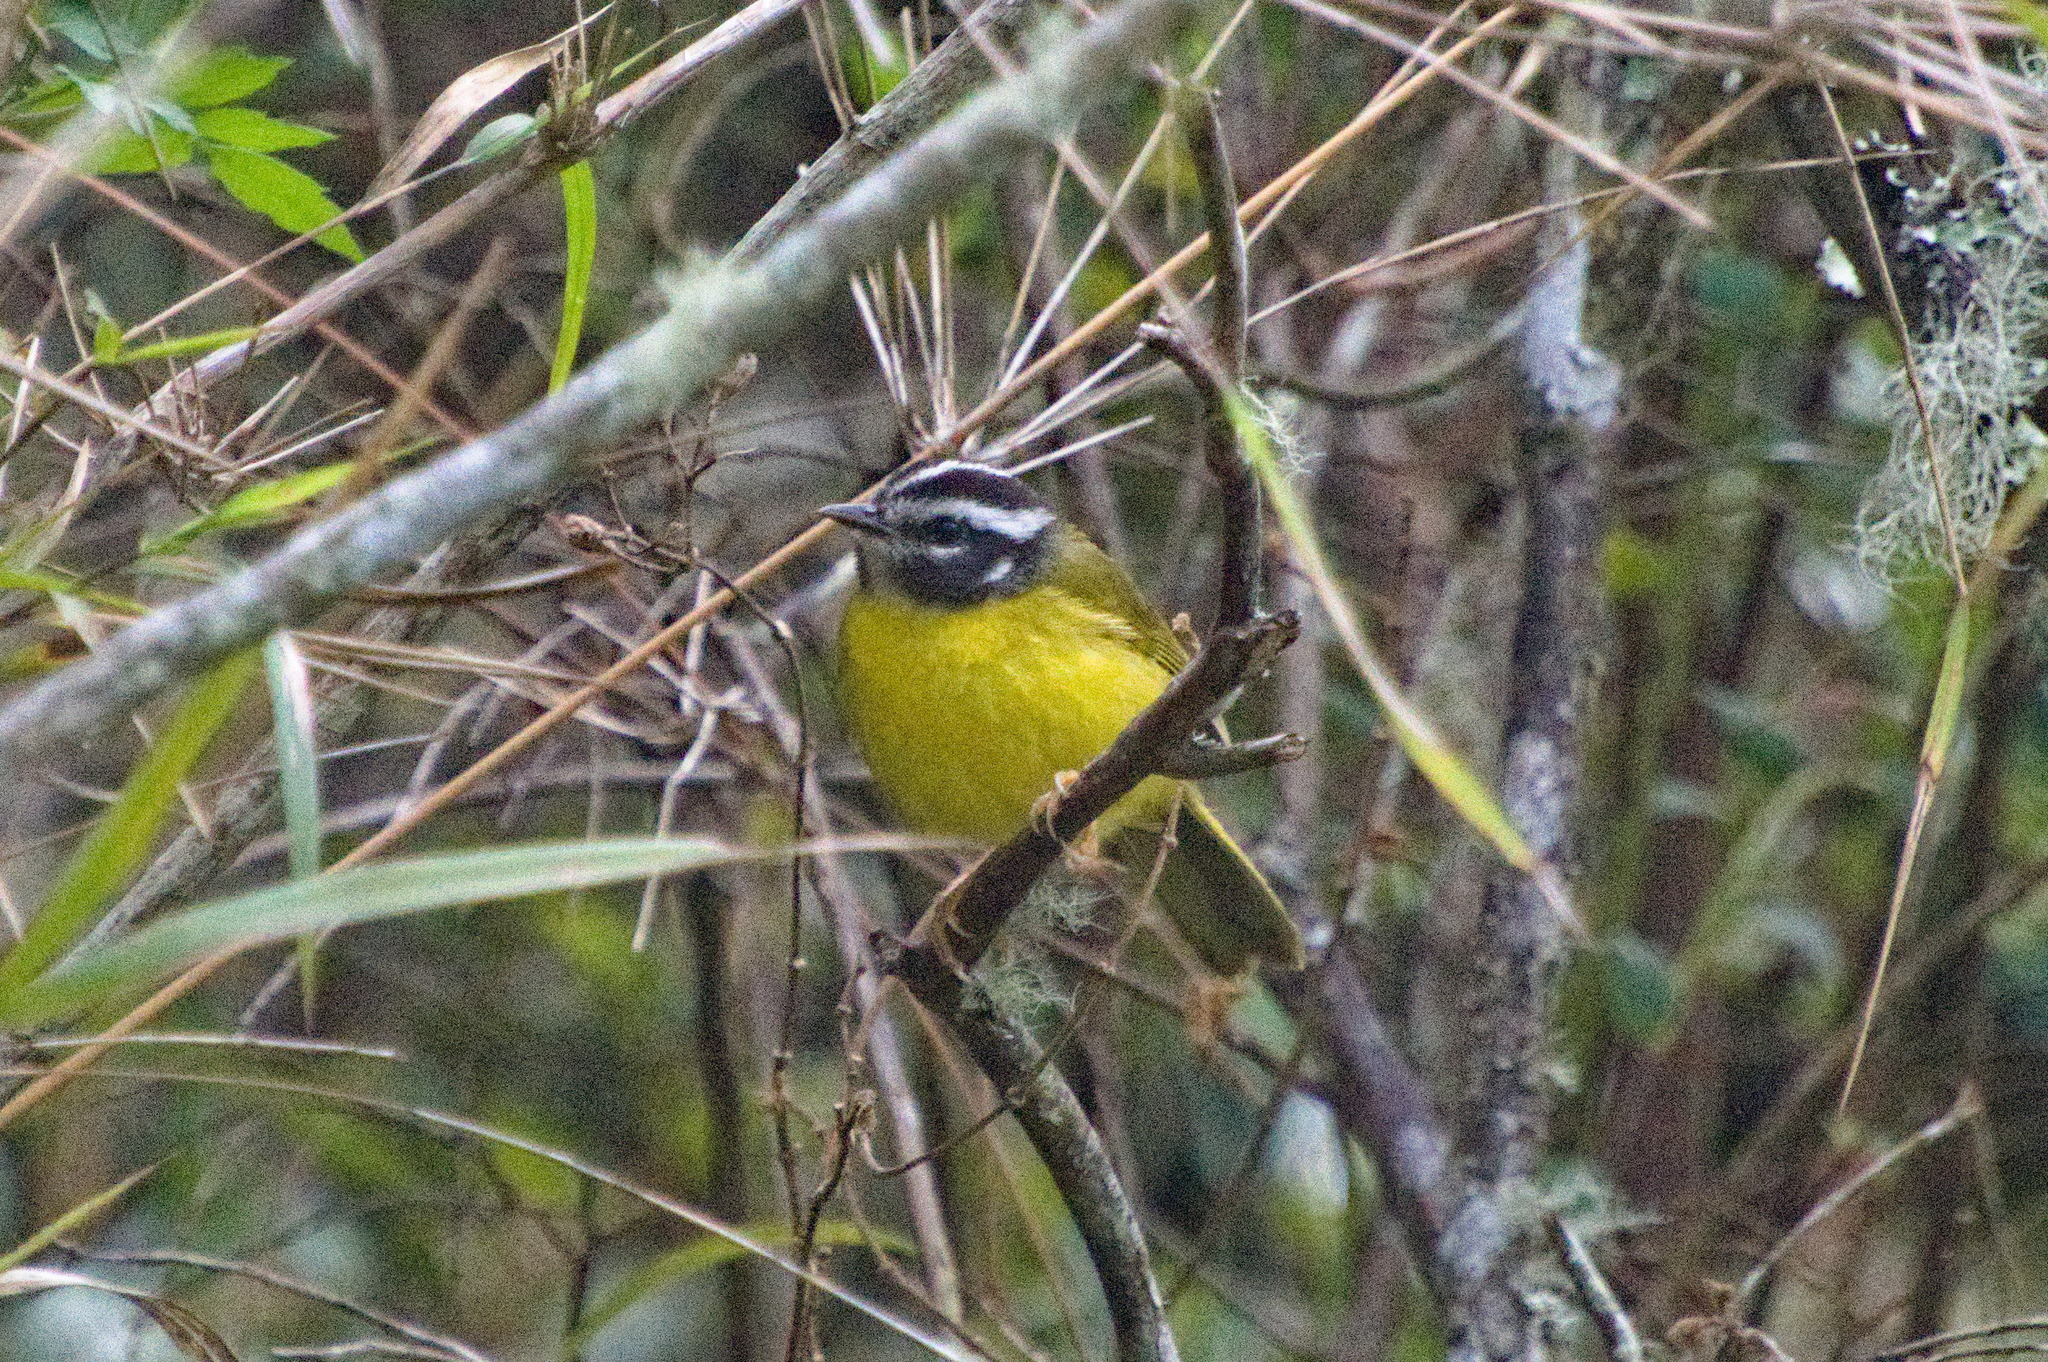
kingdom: Animalia
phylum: Chordata
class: Aves
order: Passeriformes
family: Parulidae
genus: Basileuterus
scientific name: Basileuterus basilicus
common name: Santa marta warbler
